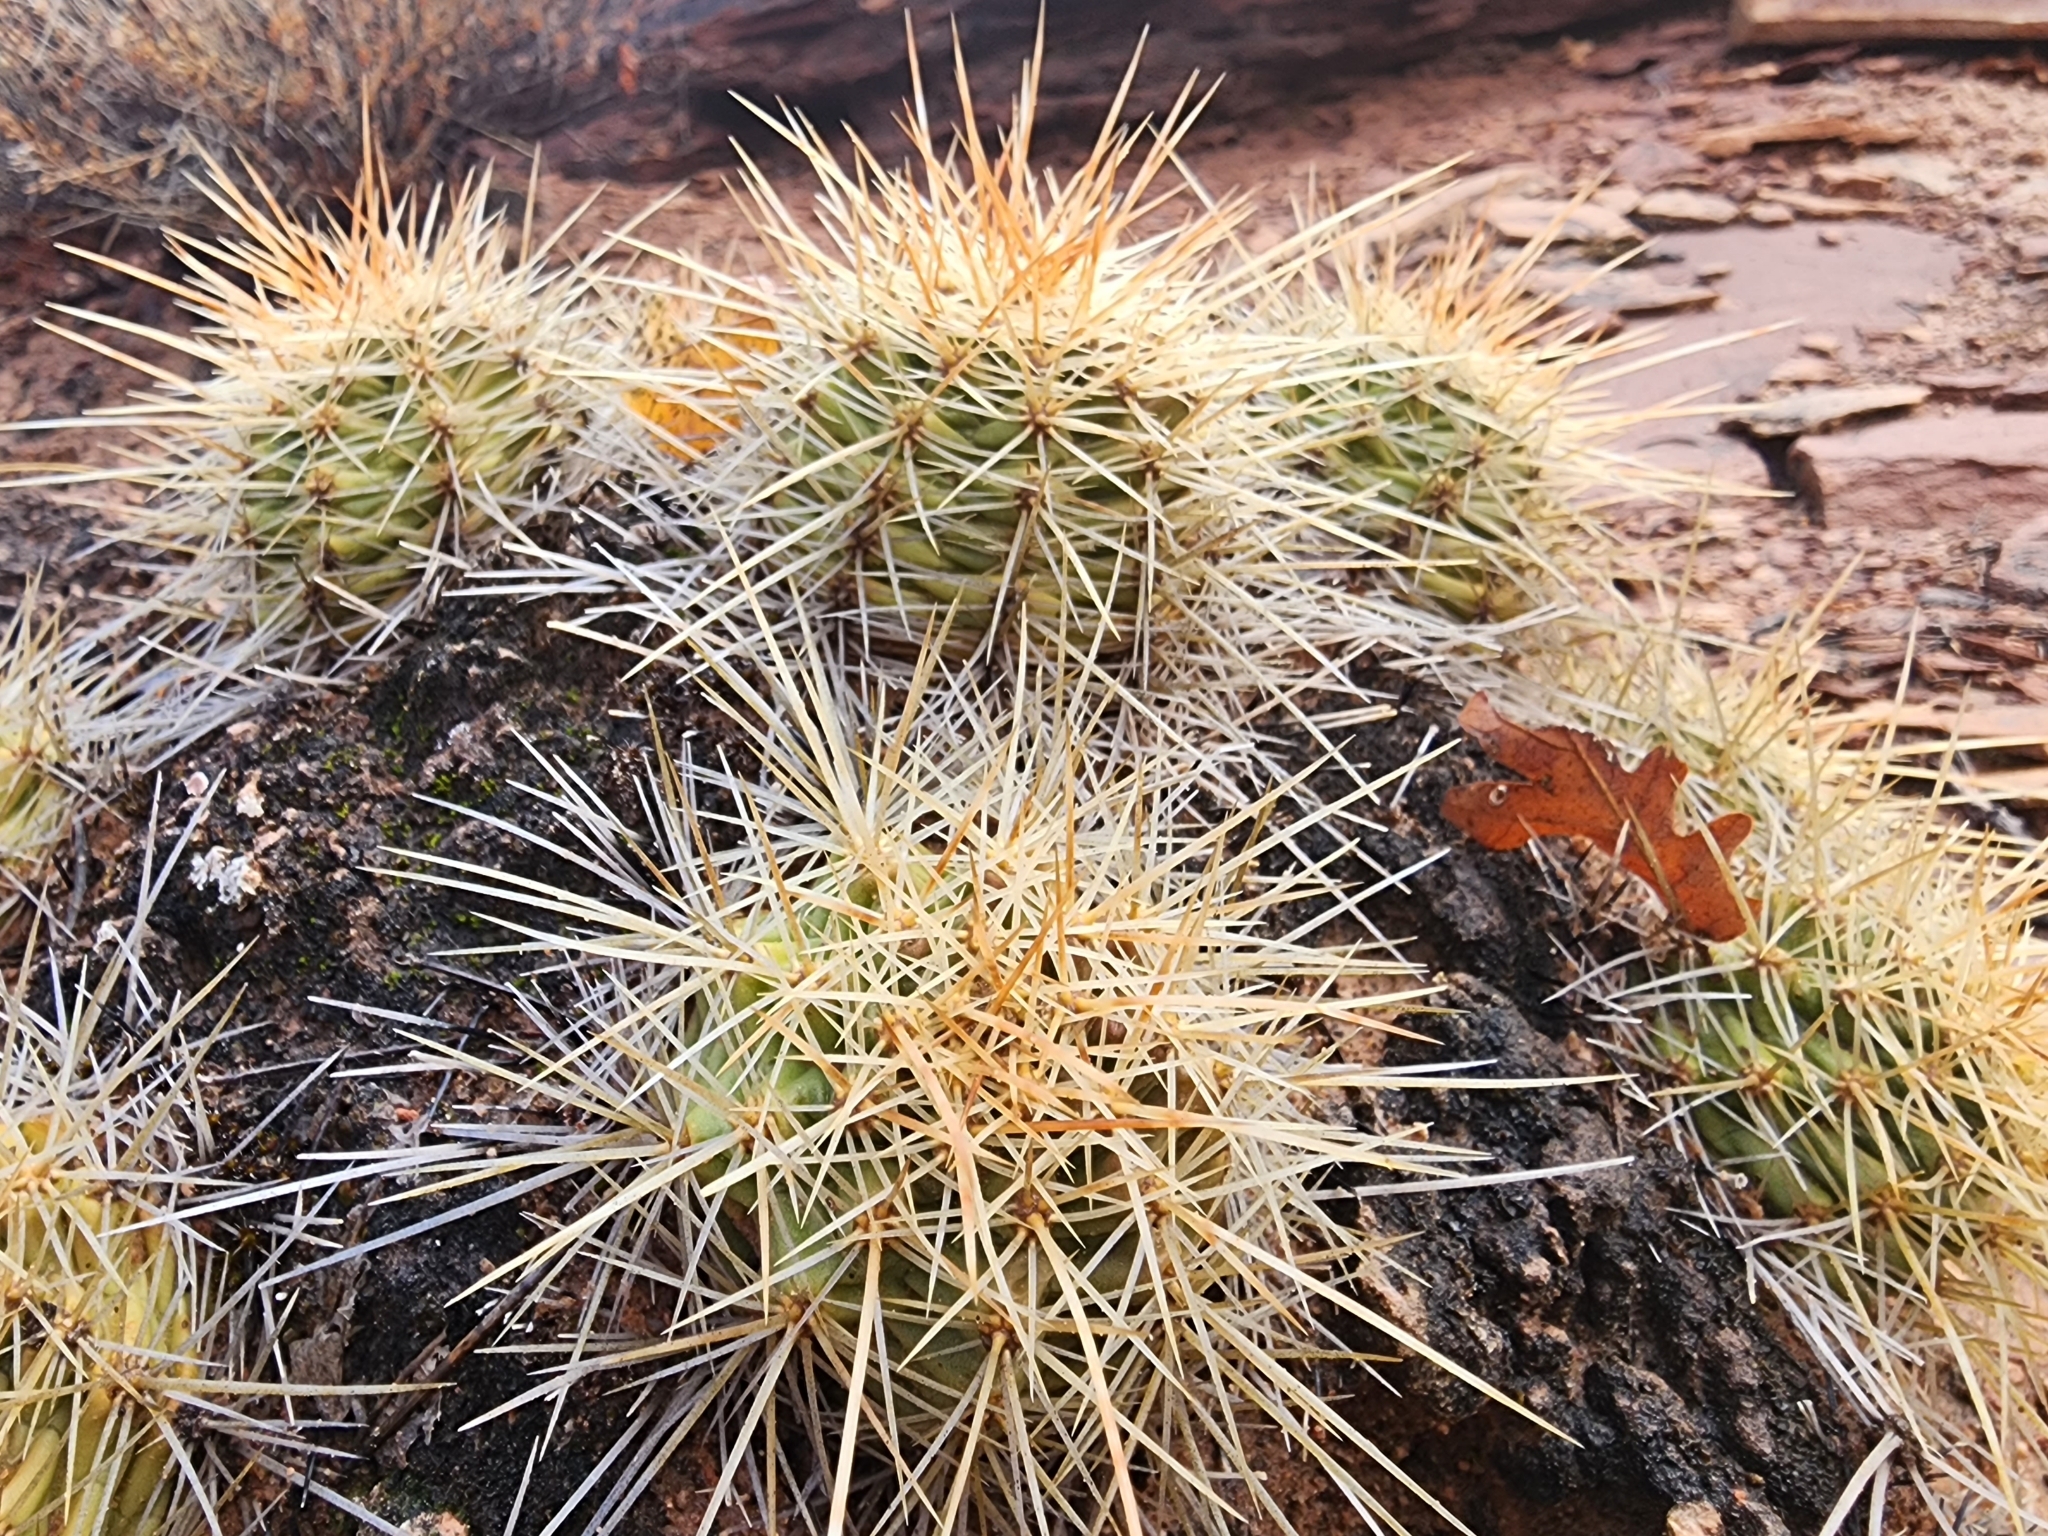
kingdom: Plantae
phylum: Tracheophyta
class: Magnoliopsida
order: Caryophyllales
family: Cactaceae
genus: Echinocereus
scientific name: Echinocereus triglochidiatus
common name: Claretcup hedgehog
